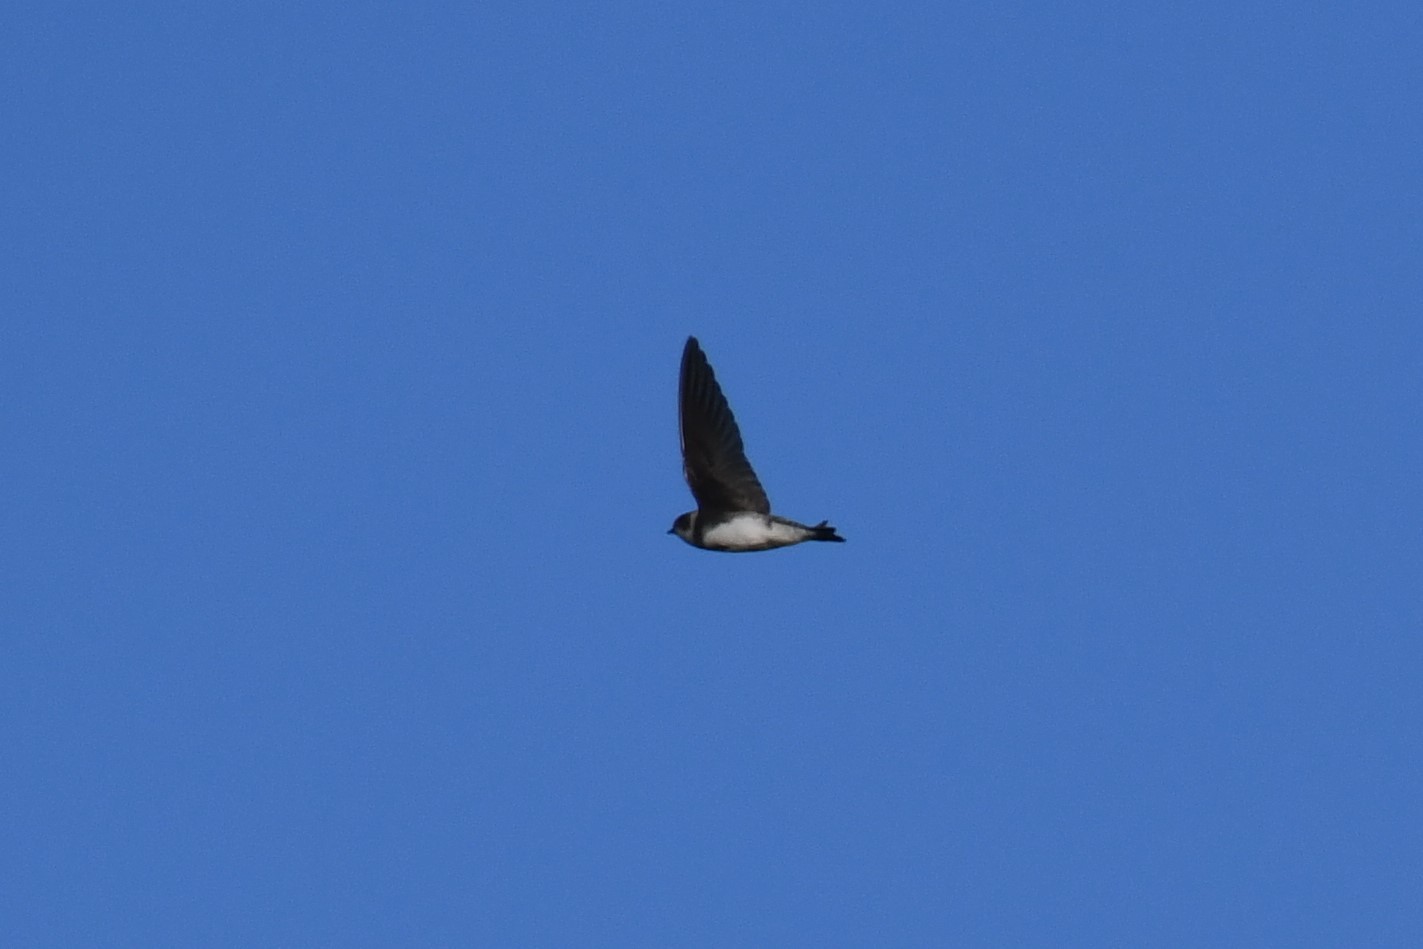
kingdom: Animalia
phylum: Chordata
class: Aves
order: Passeriformes
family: Hirundinidae
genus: Riparia
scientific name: Riparia riparia
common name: Sand martin
